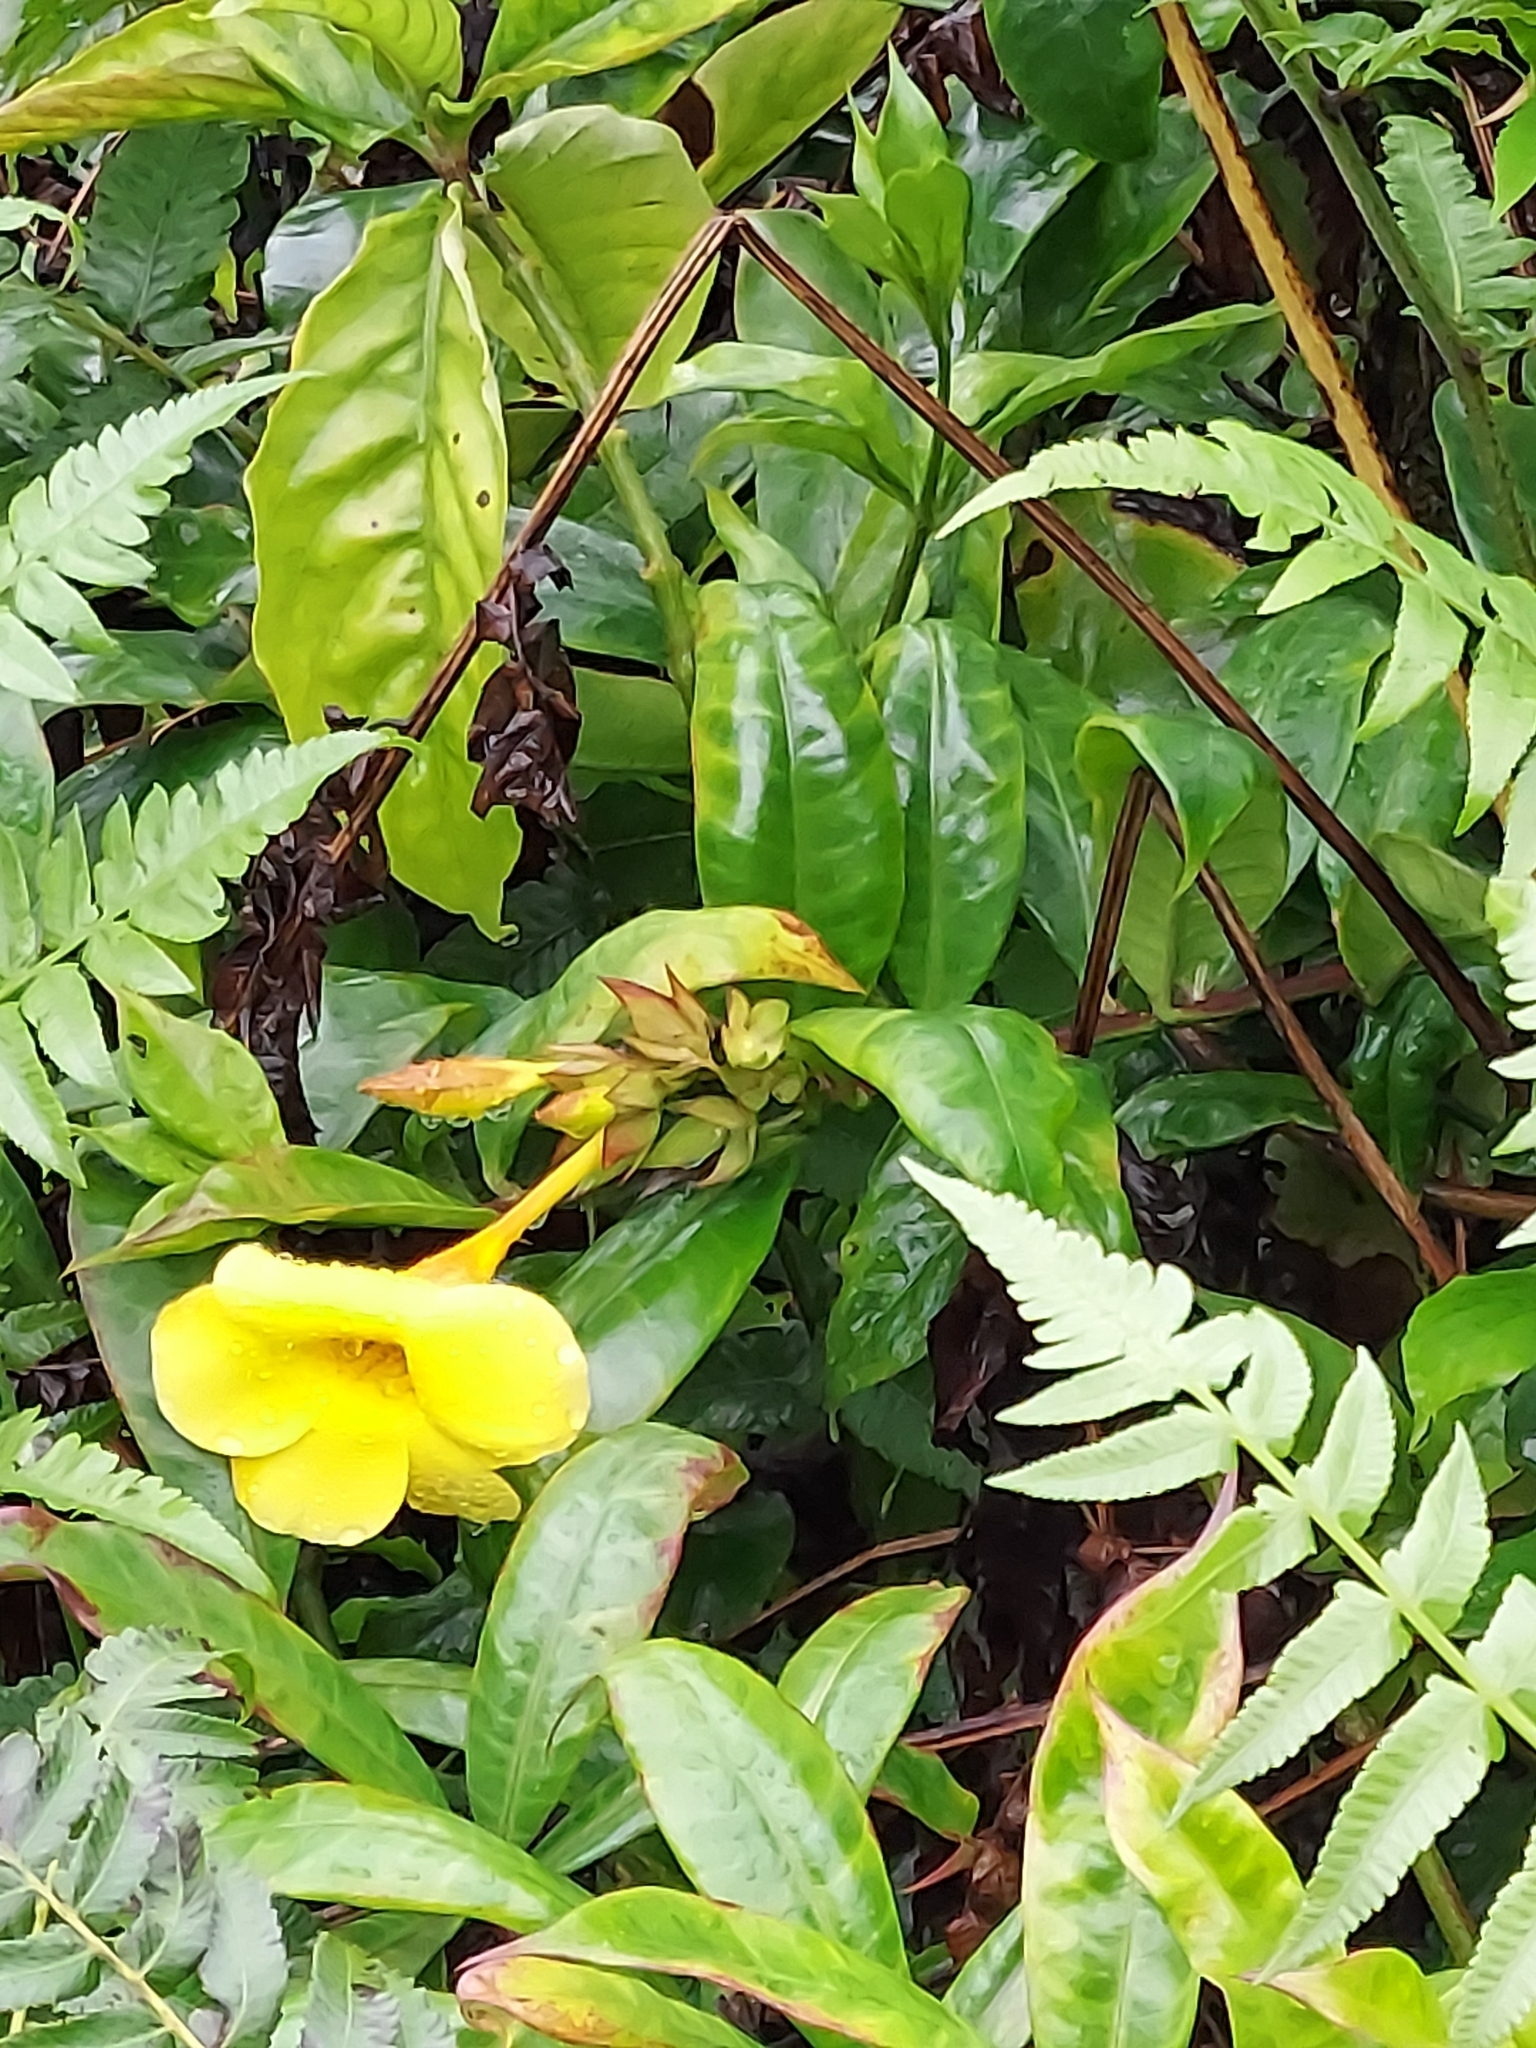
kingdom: Plantae
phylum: Tracheophyta
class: Magnoliopsida
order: Gentianales
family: Apocynaceae
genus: Allamanda
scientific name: Allamanda cathartica
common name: Golden trumpet
